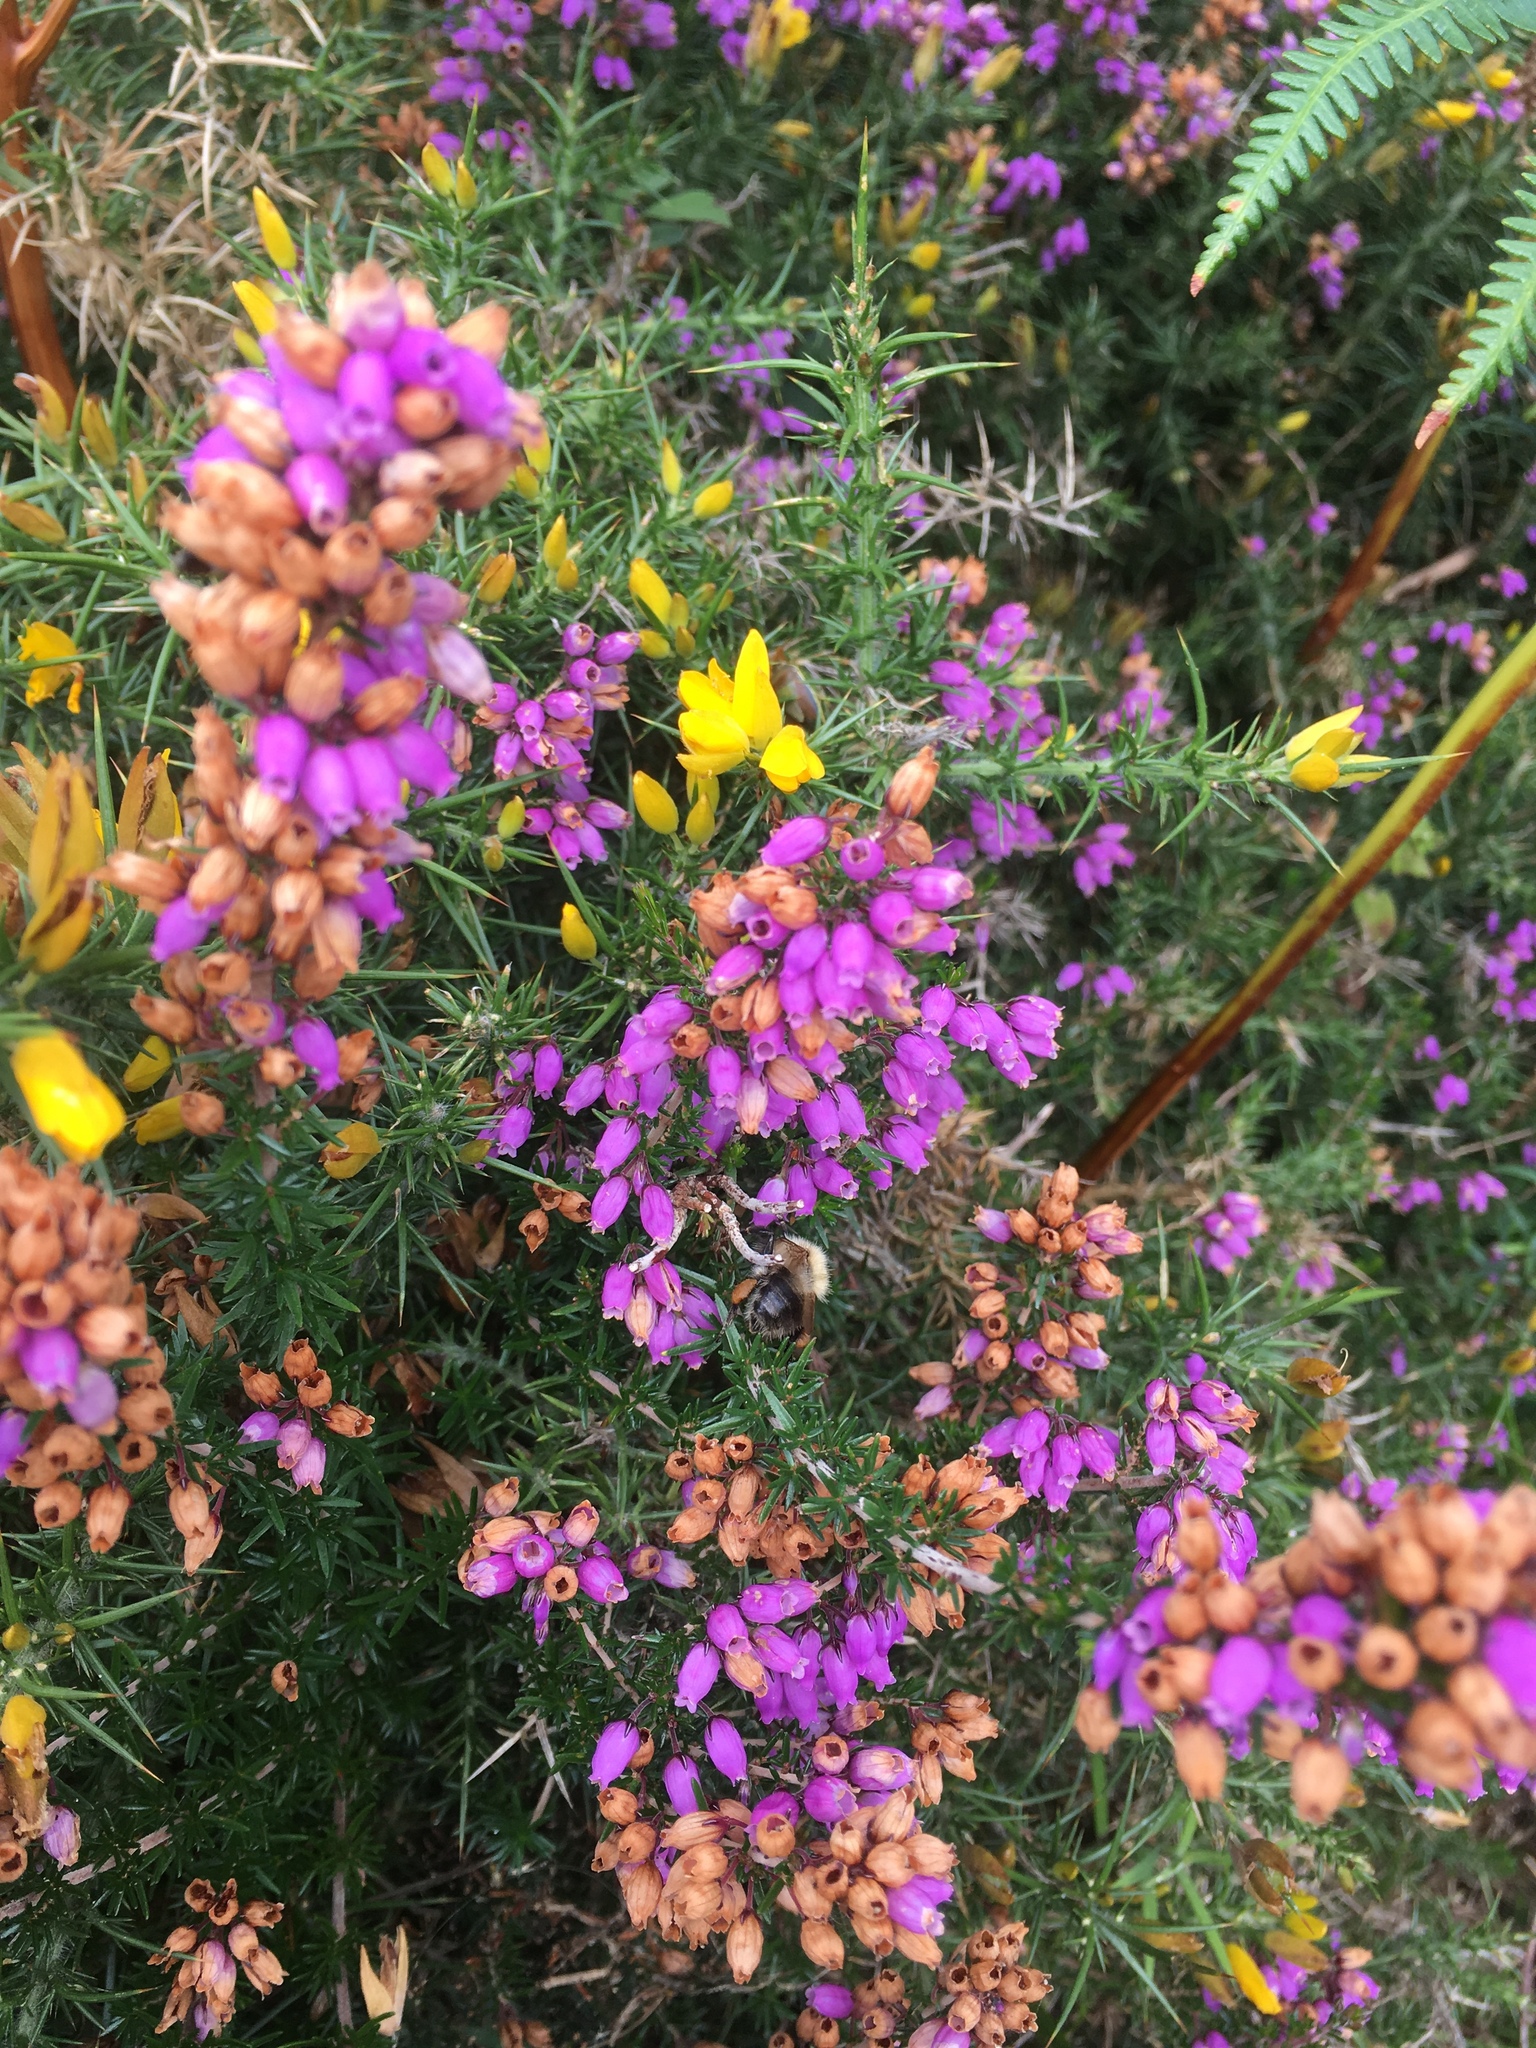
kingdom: Plantae
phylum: Tracheophyta
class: Magnoliopsida
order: Ericales
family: Ericaceae
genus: Erica
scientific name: Erica cinerea
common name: Bell heather
